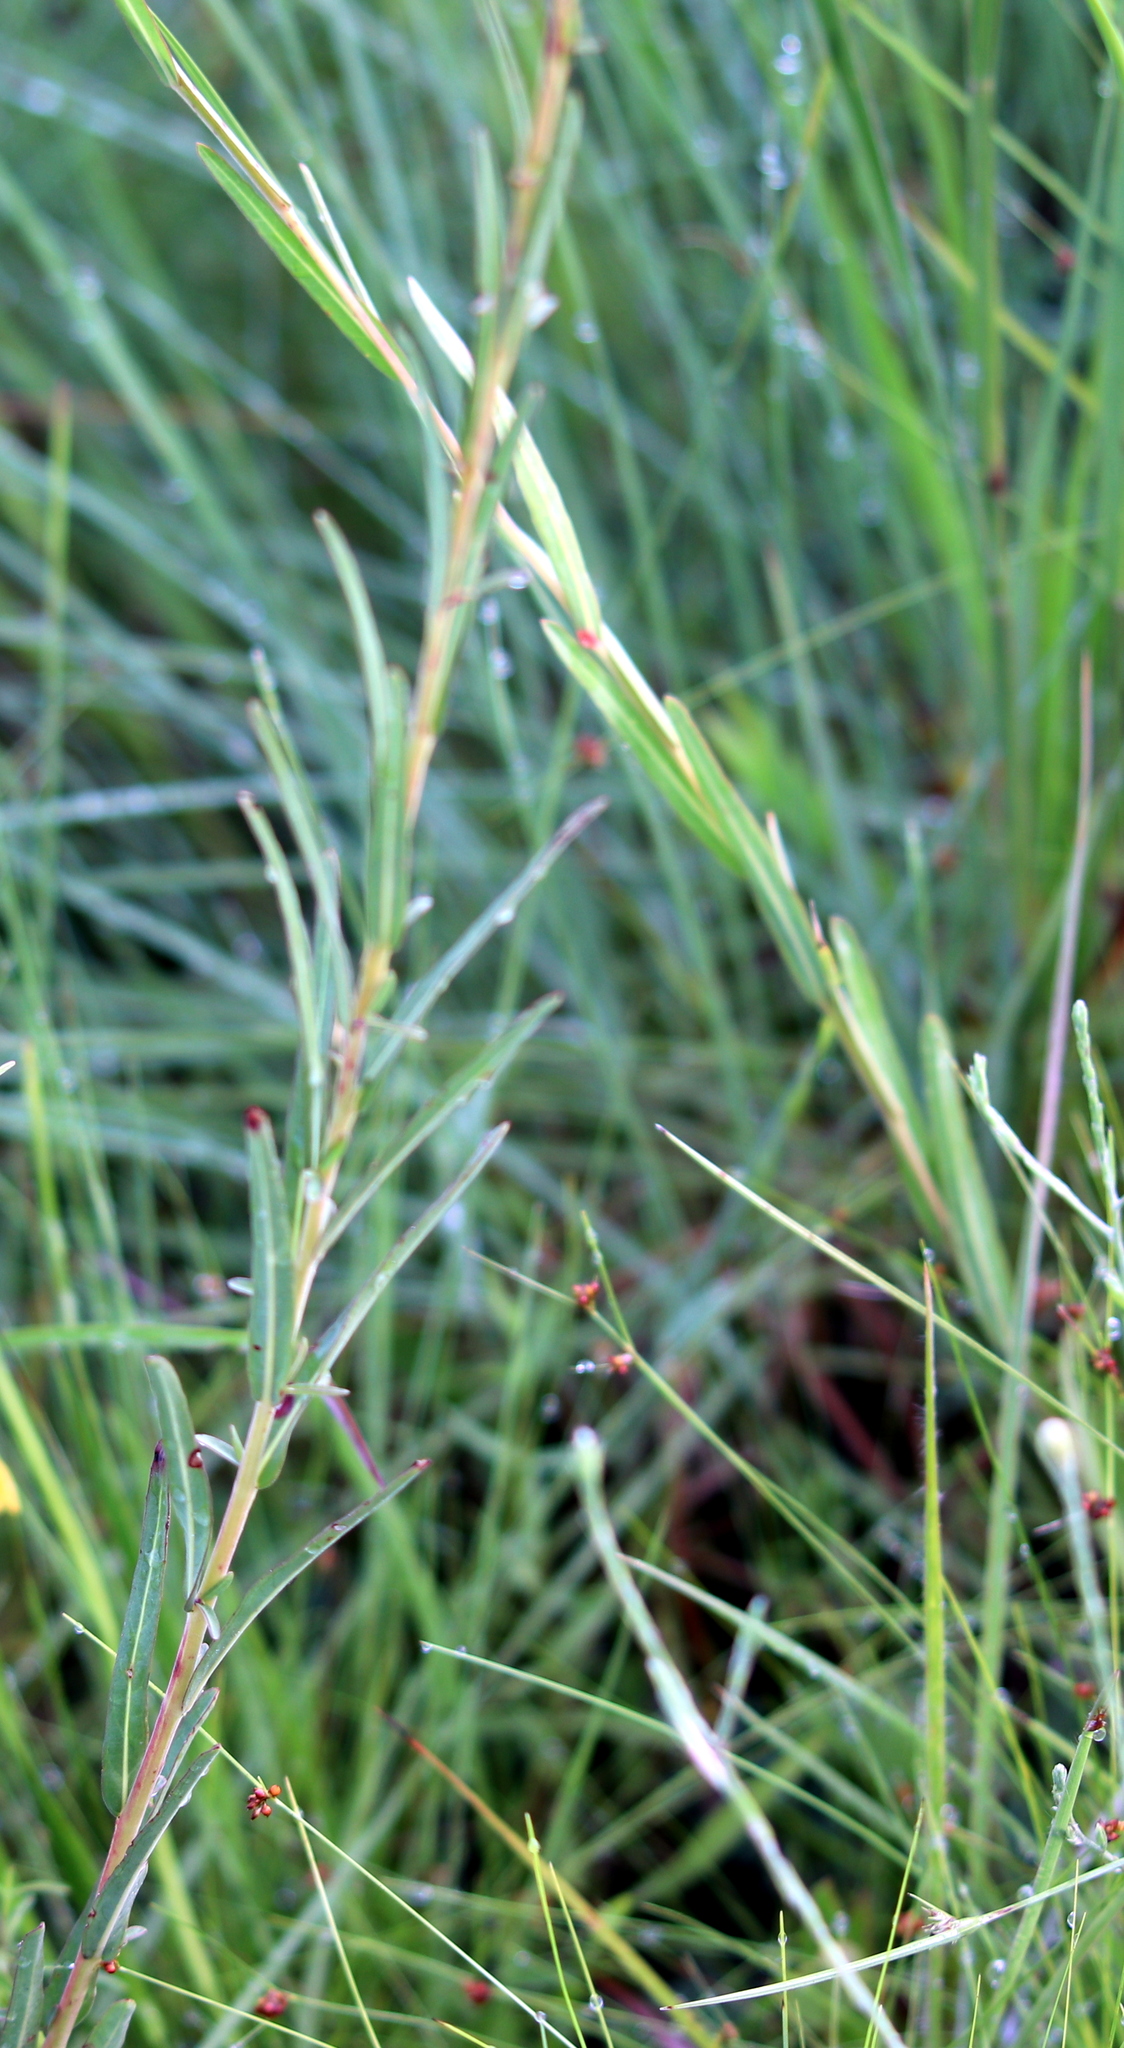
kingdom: Plantae
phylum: Tracheophyta
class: Magnoliopsida
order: Myrtales
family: Onagraceae
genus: Ludwigia
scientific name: Ludwigia virgata
